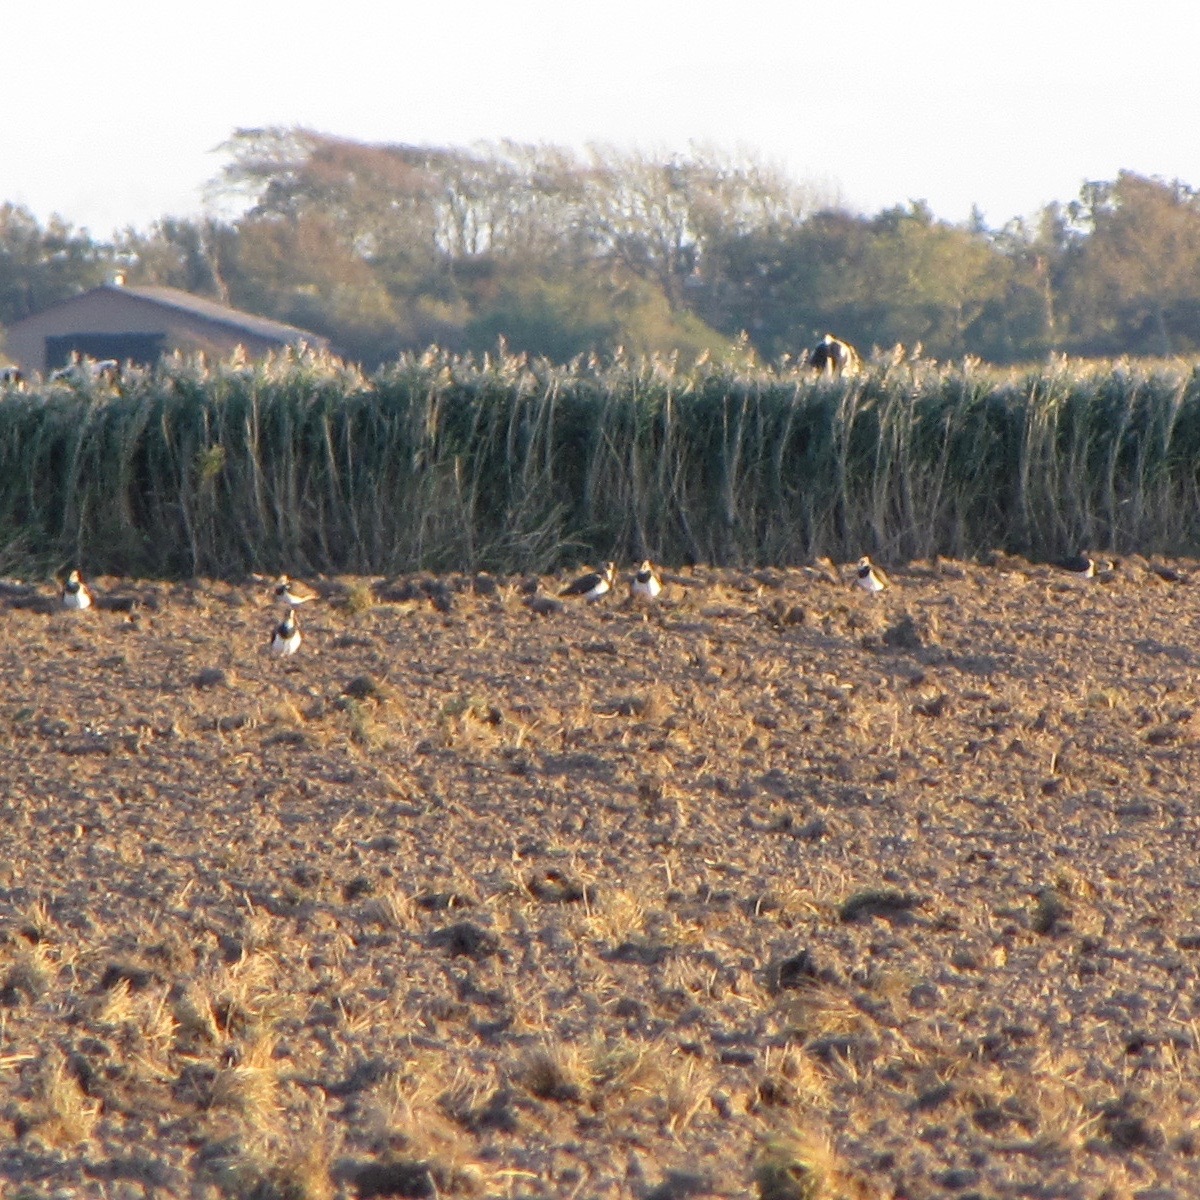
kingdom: Animalia
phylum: Chordata
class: Aves
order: Charadriiformes
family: Charadriidae
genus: Vanellus
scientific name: Vanellus vanellus
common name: Northern lapwing
